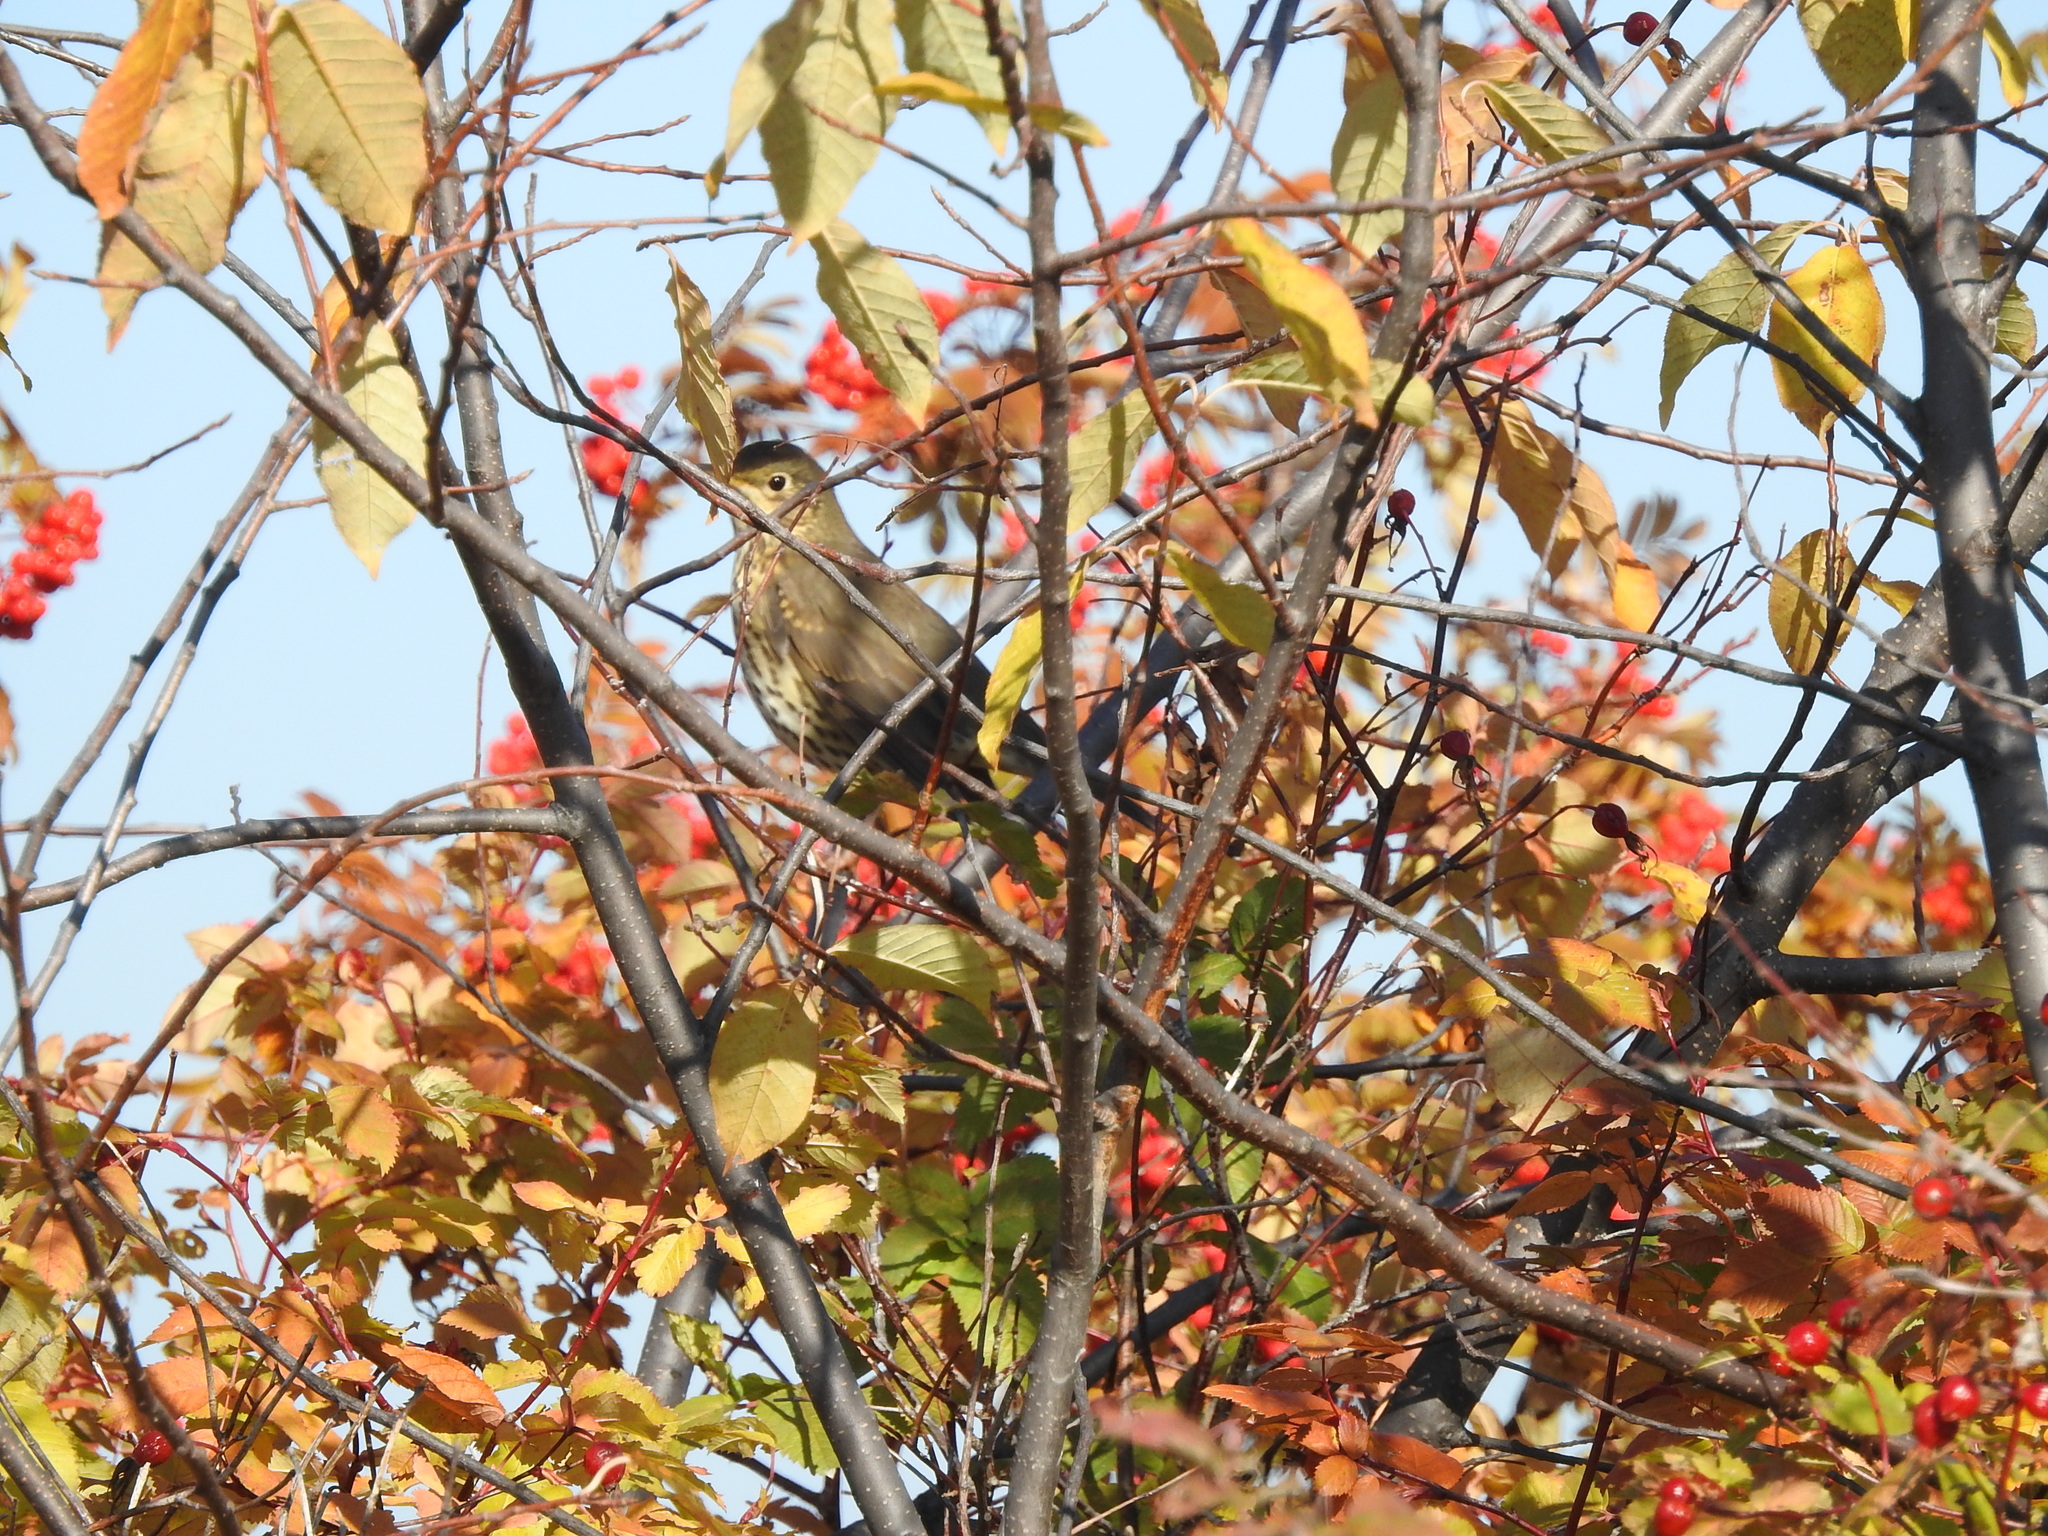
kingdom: Animalia
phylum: Chordata
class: Aves
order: Passeriformes
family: Turdidae
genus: Turdus
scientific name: Turdus philomelos
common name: Song thrush
